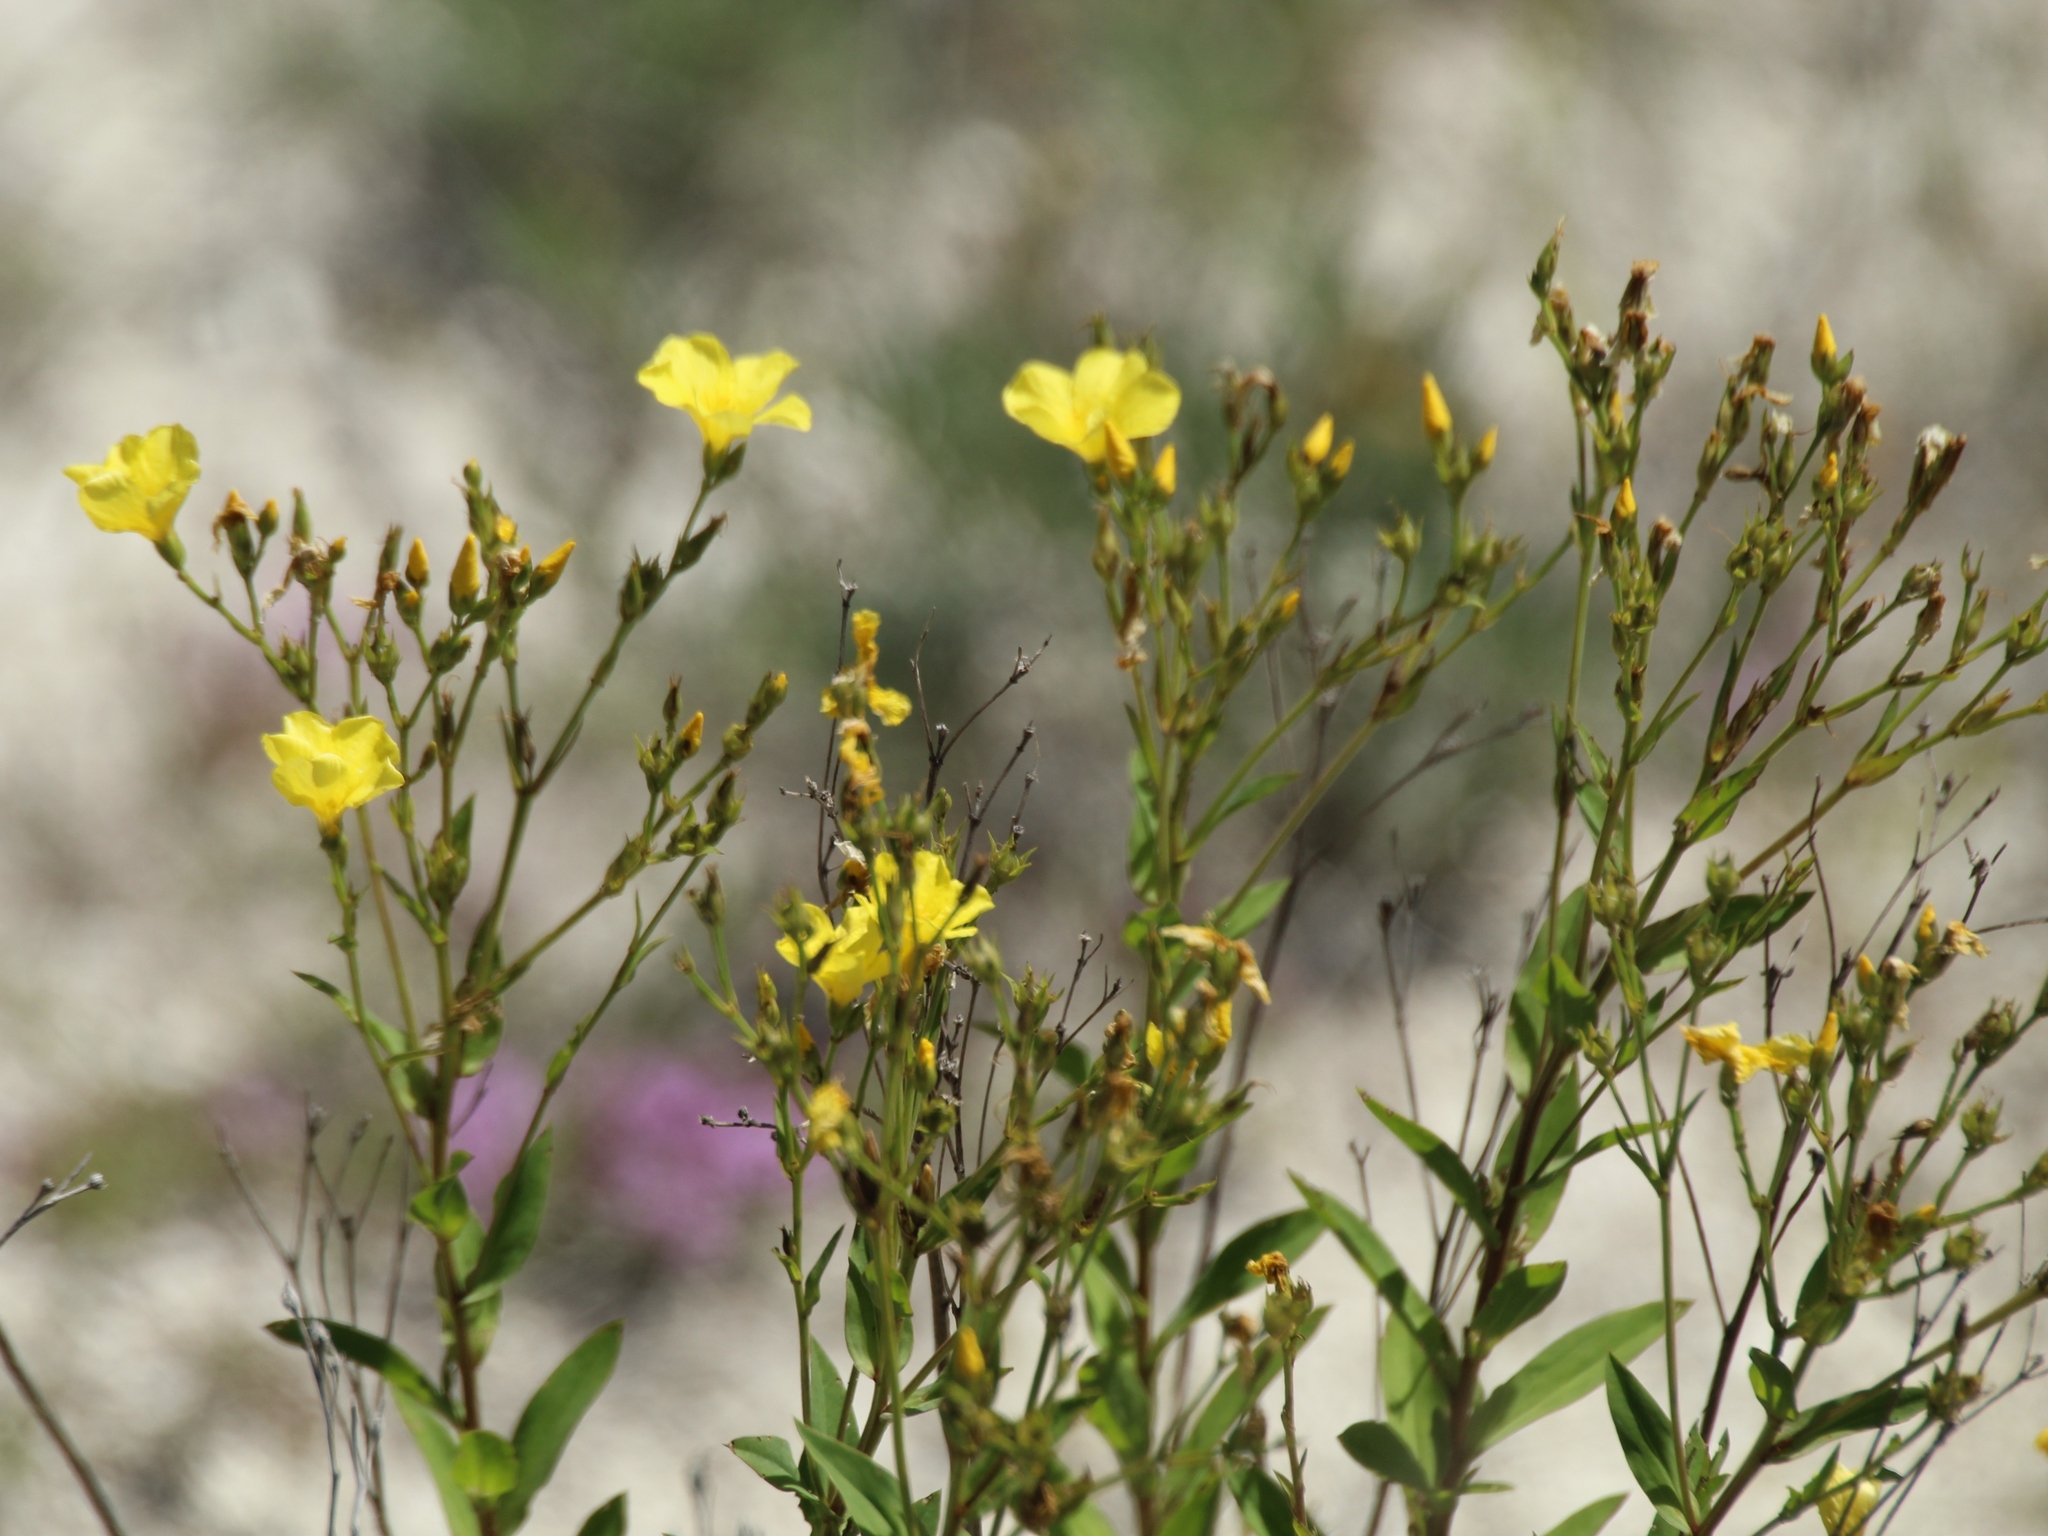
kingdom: Plantae
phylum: Tracheophyta
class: Magnoliopsida
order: Malpighiales
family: Linaceae
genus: Linum
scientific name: Linum flavum
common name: Yellow flax
